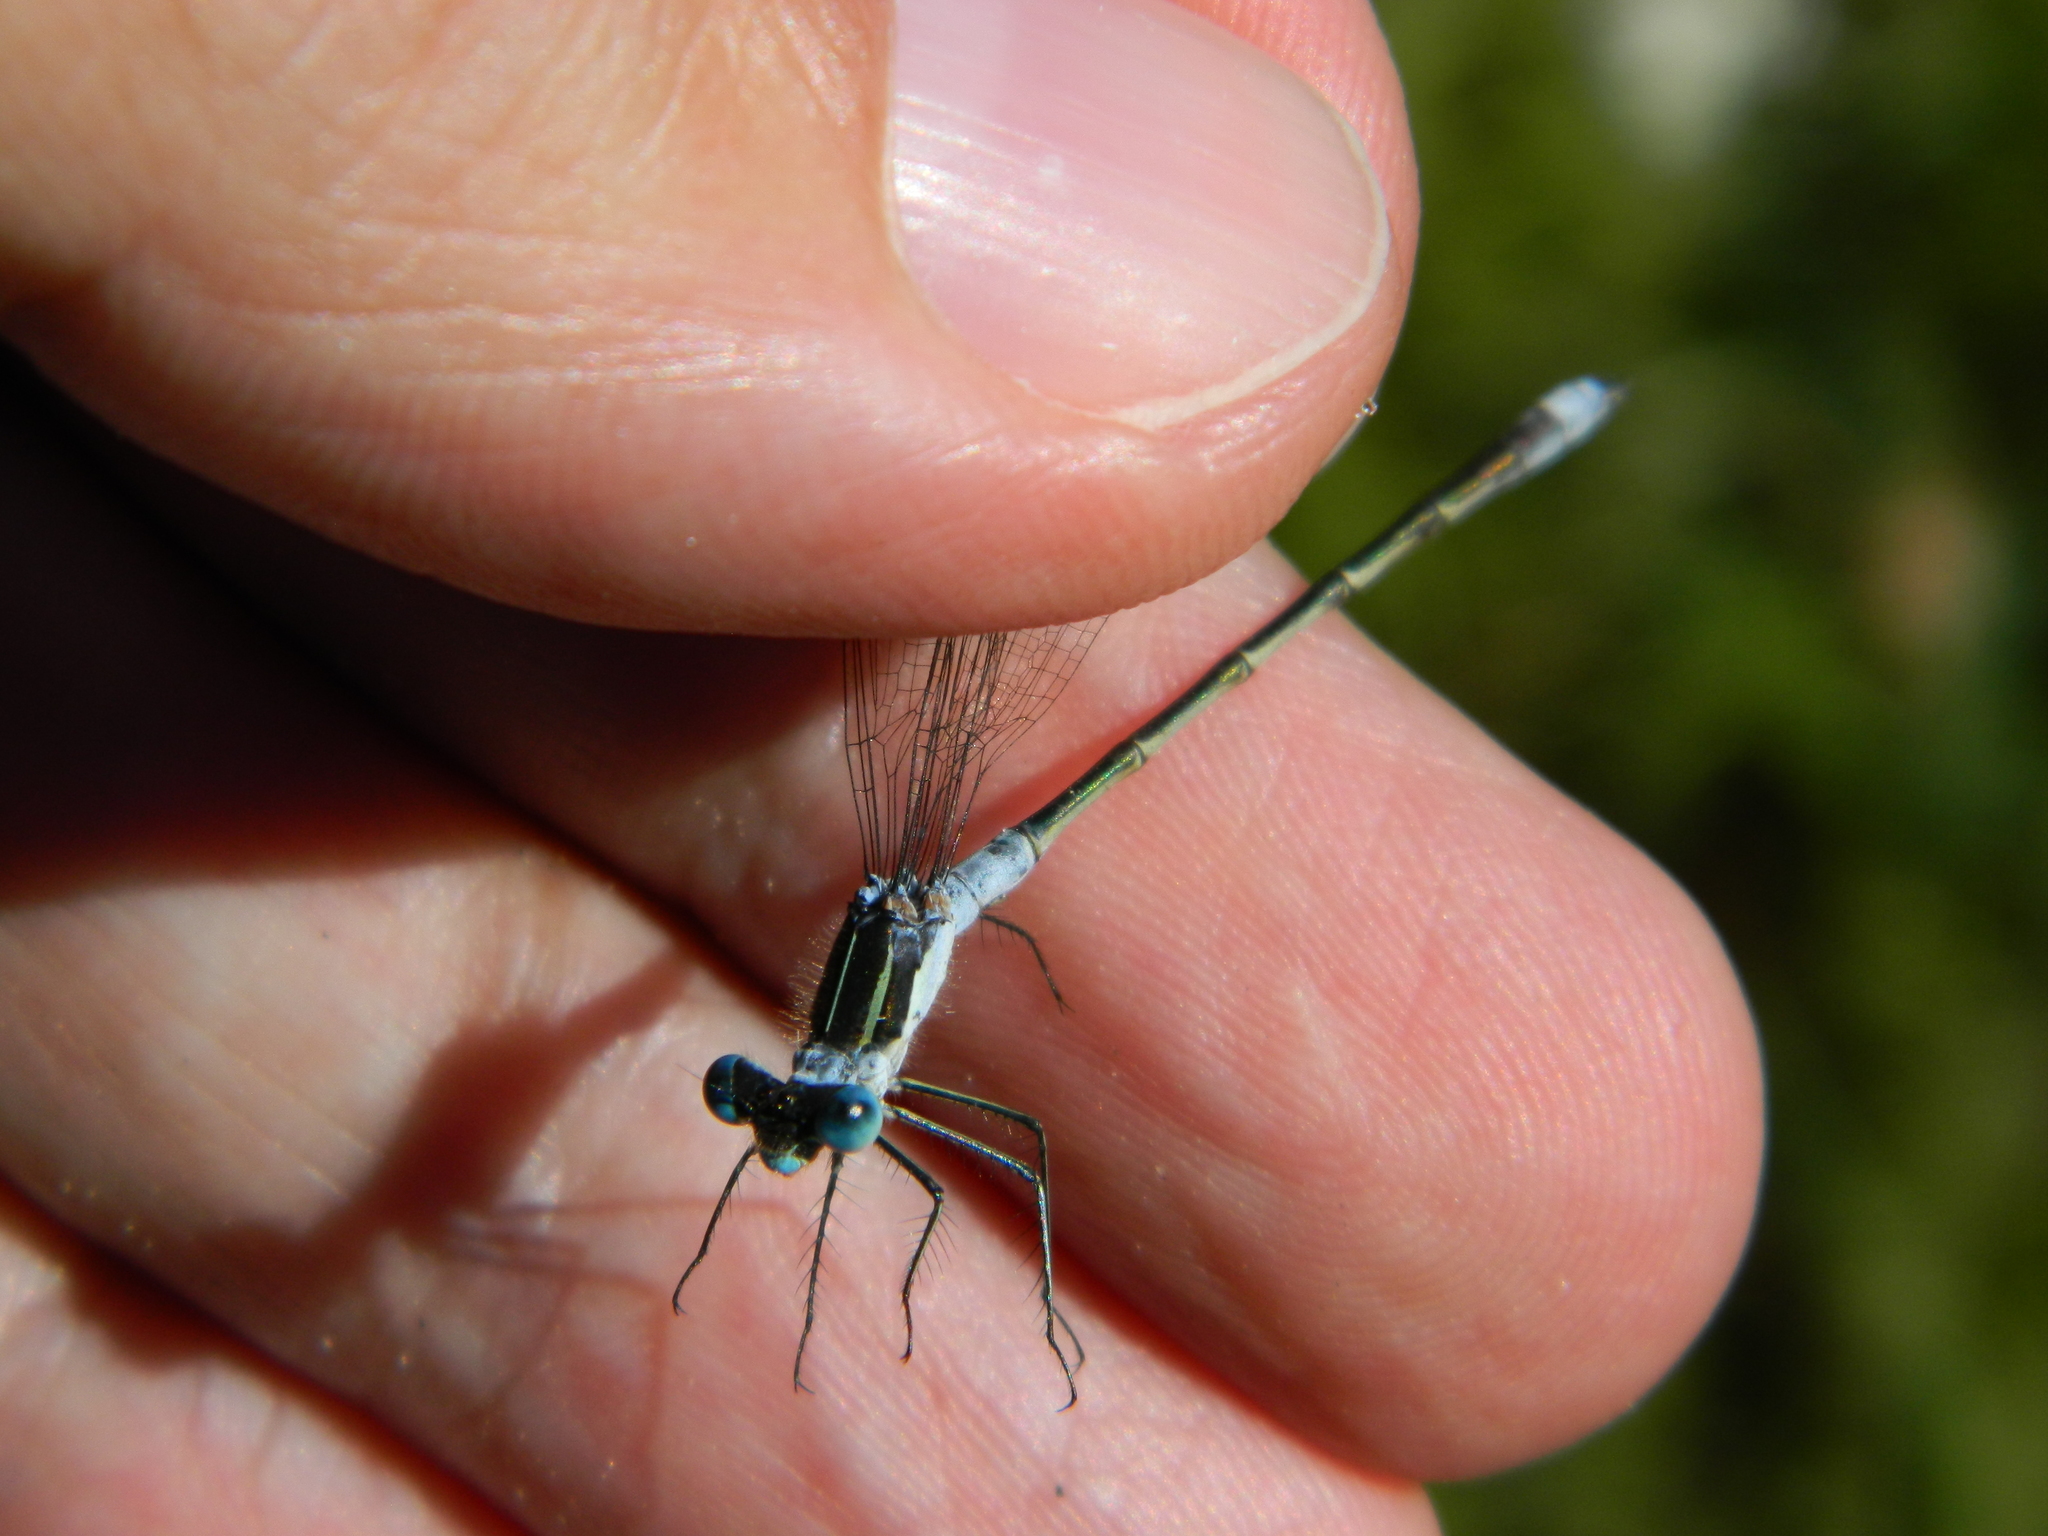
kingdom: Animalia
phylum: Arthropoda
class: Insecta
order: Odonata
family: Lestidae
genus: Lestes
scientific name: Lestes disjunctus
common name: Northern spreadwing
